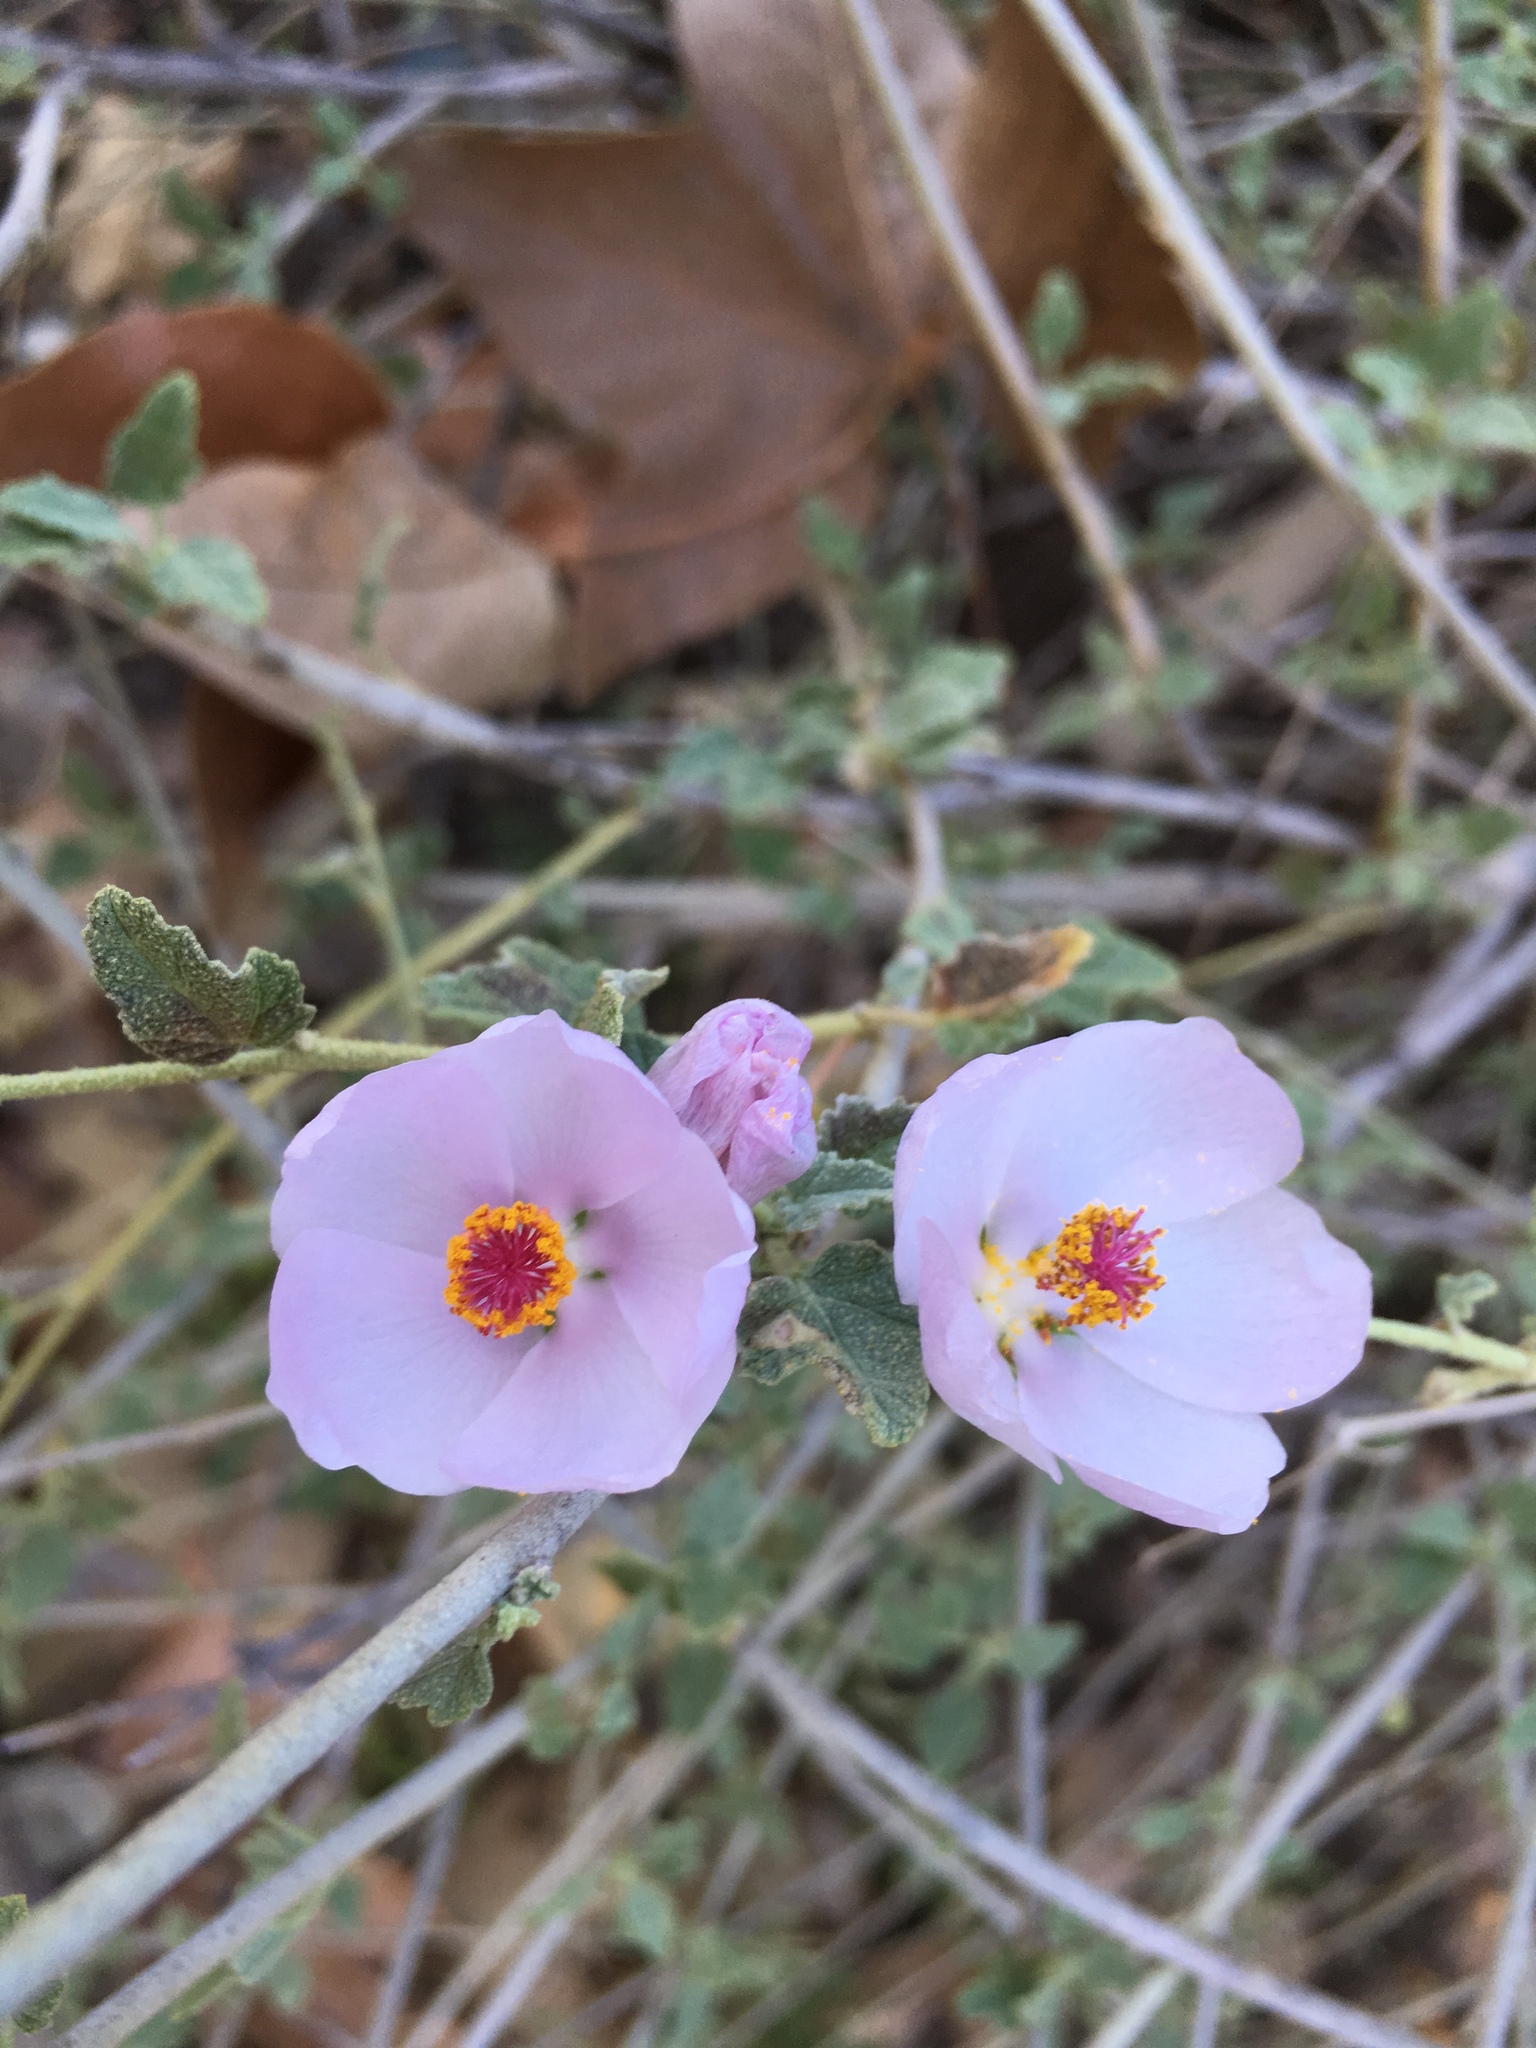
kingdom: Plantae
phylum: Tracheophyta
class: Magnoliopsida
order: Malvales
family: Malvaceae
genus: Malacothamnus
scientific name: Malacothamnus fasciculatus
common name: Sant cruz island bush-mallow
